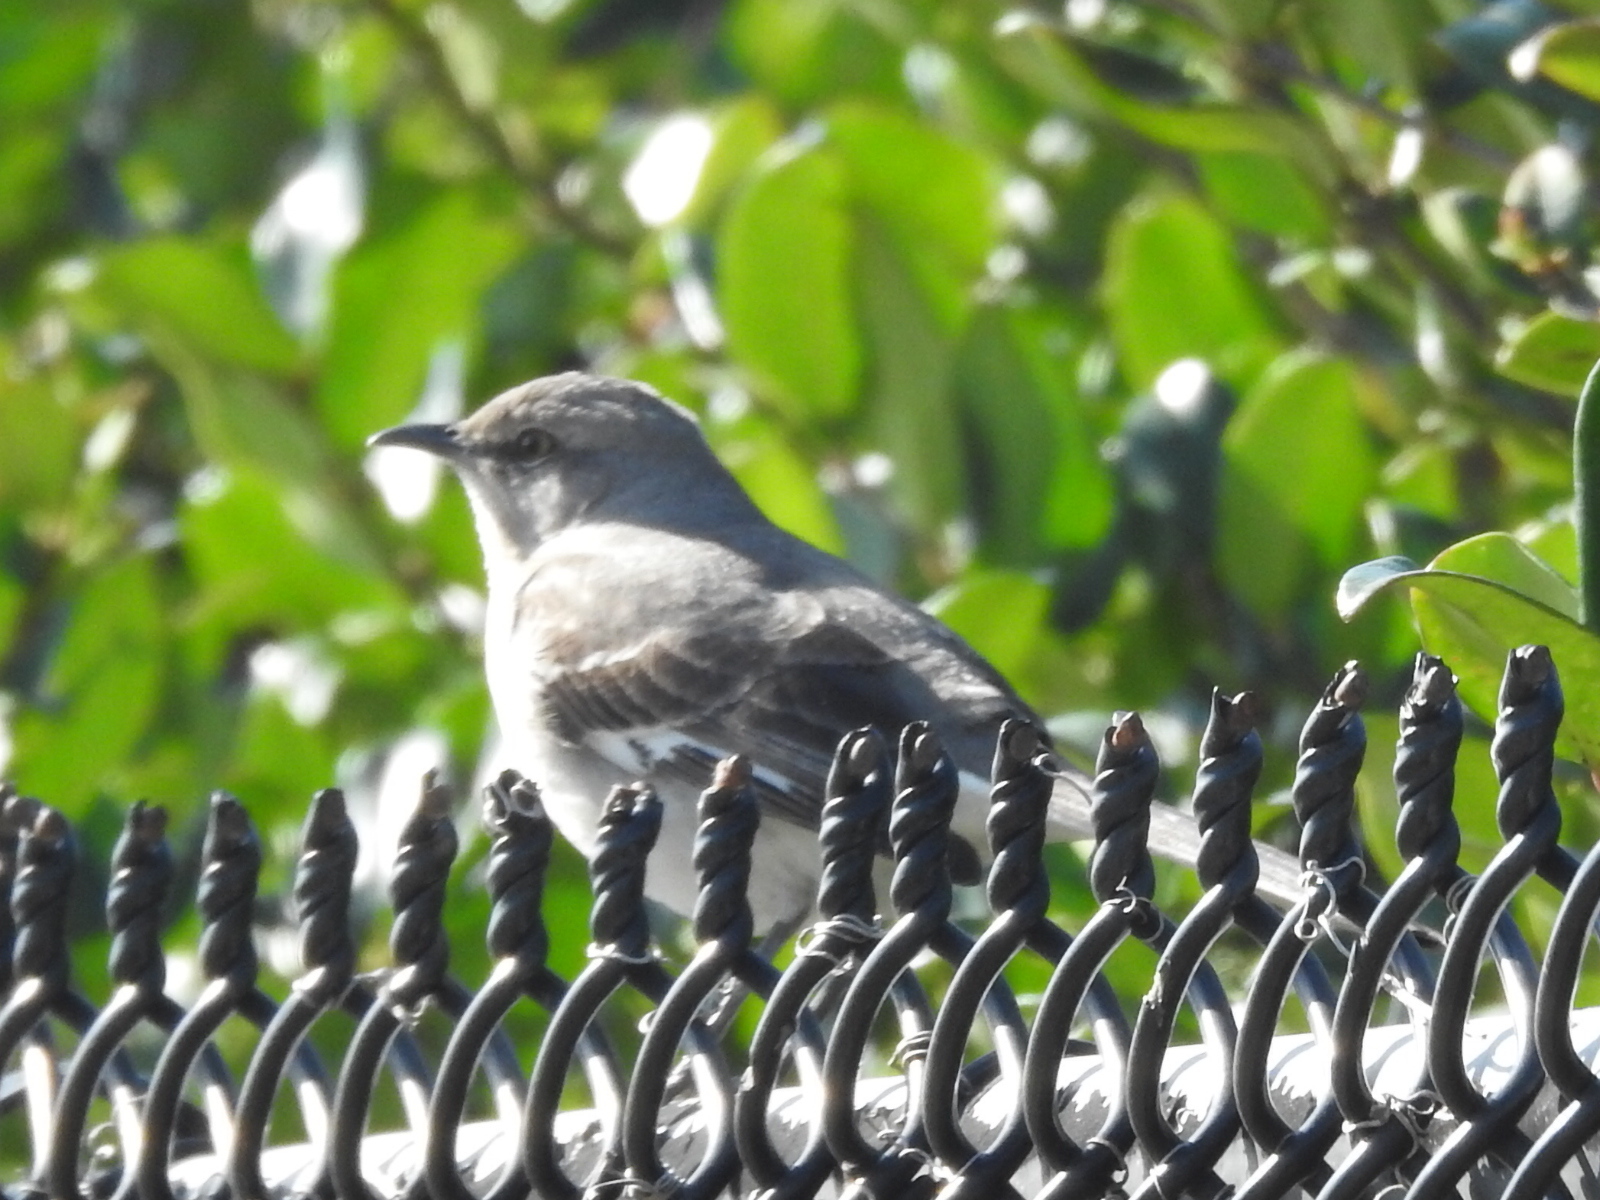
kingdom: Animalia
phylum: Chordata
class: Aves
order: Passeriformes
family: Mimidae
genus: Mimus
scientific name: Mimus polyglottos
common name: Northern mockingbird
